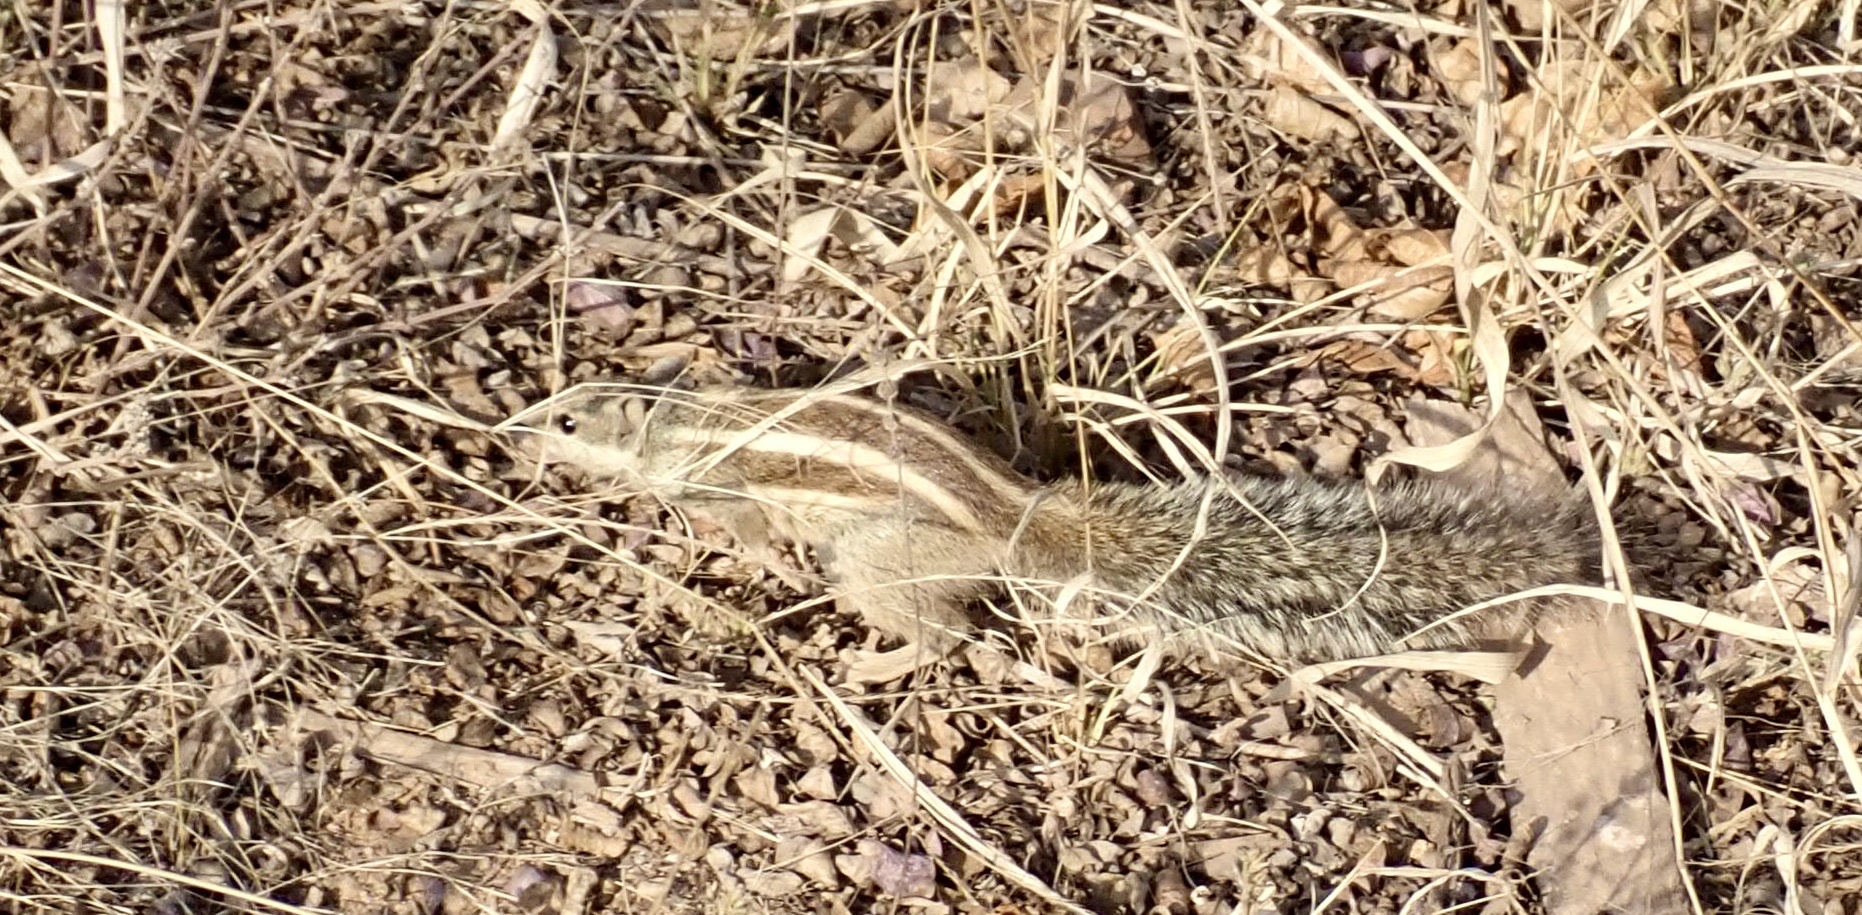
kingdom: Animalia
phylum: Chordata
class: Mammalia
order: Rodentia
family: Sciuridae
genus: Funambulus
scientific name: Funambulus pennantii
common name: Northern palm squirrel
